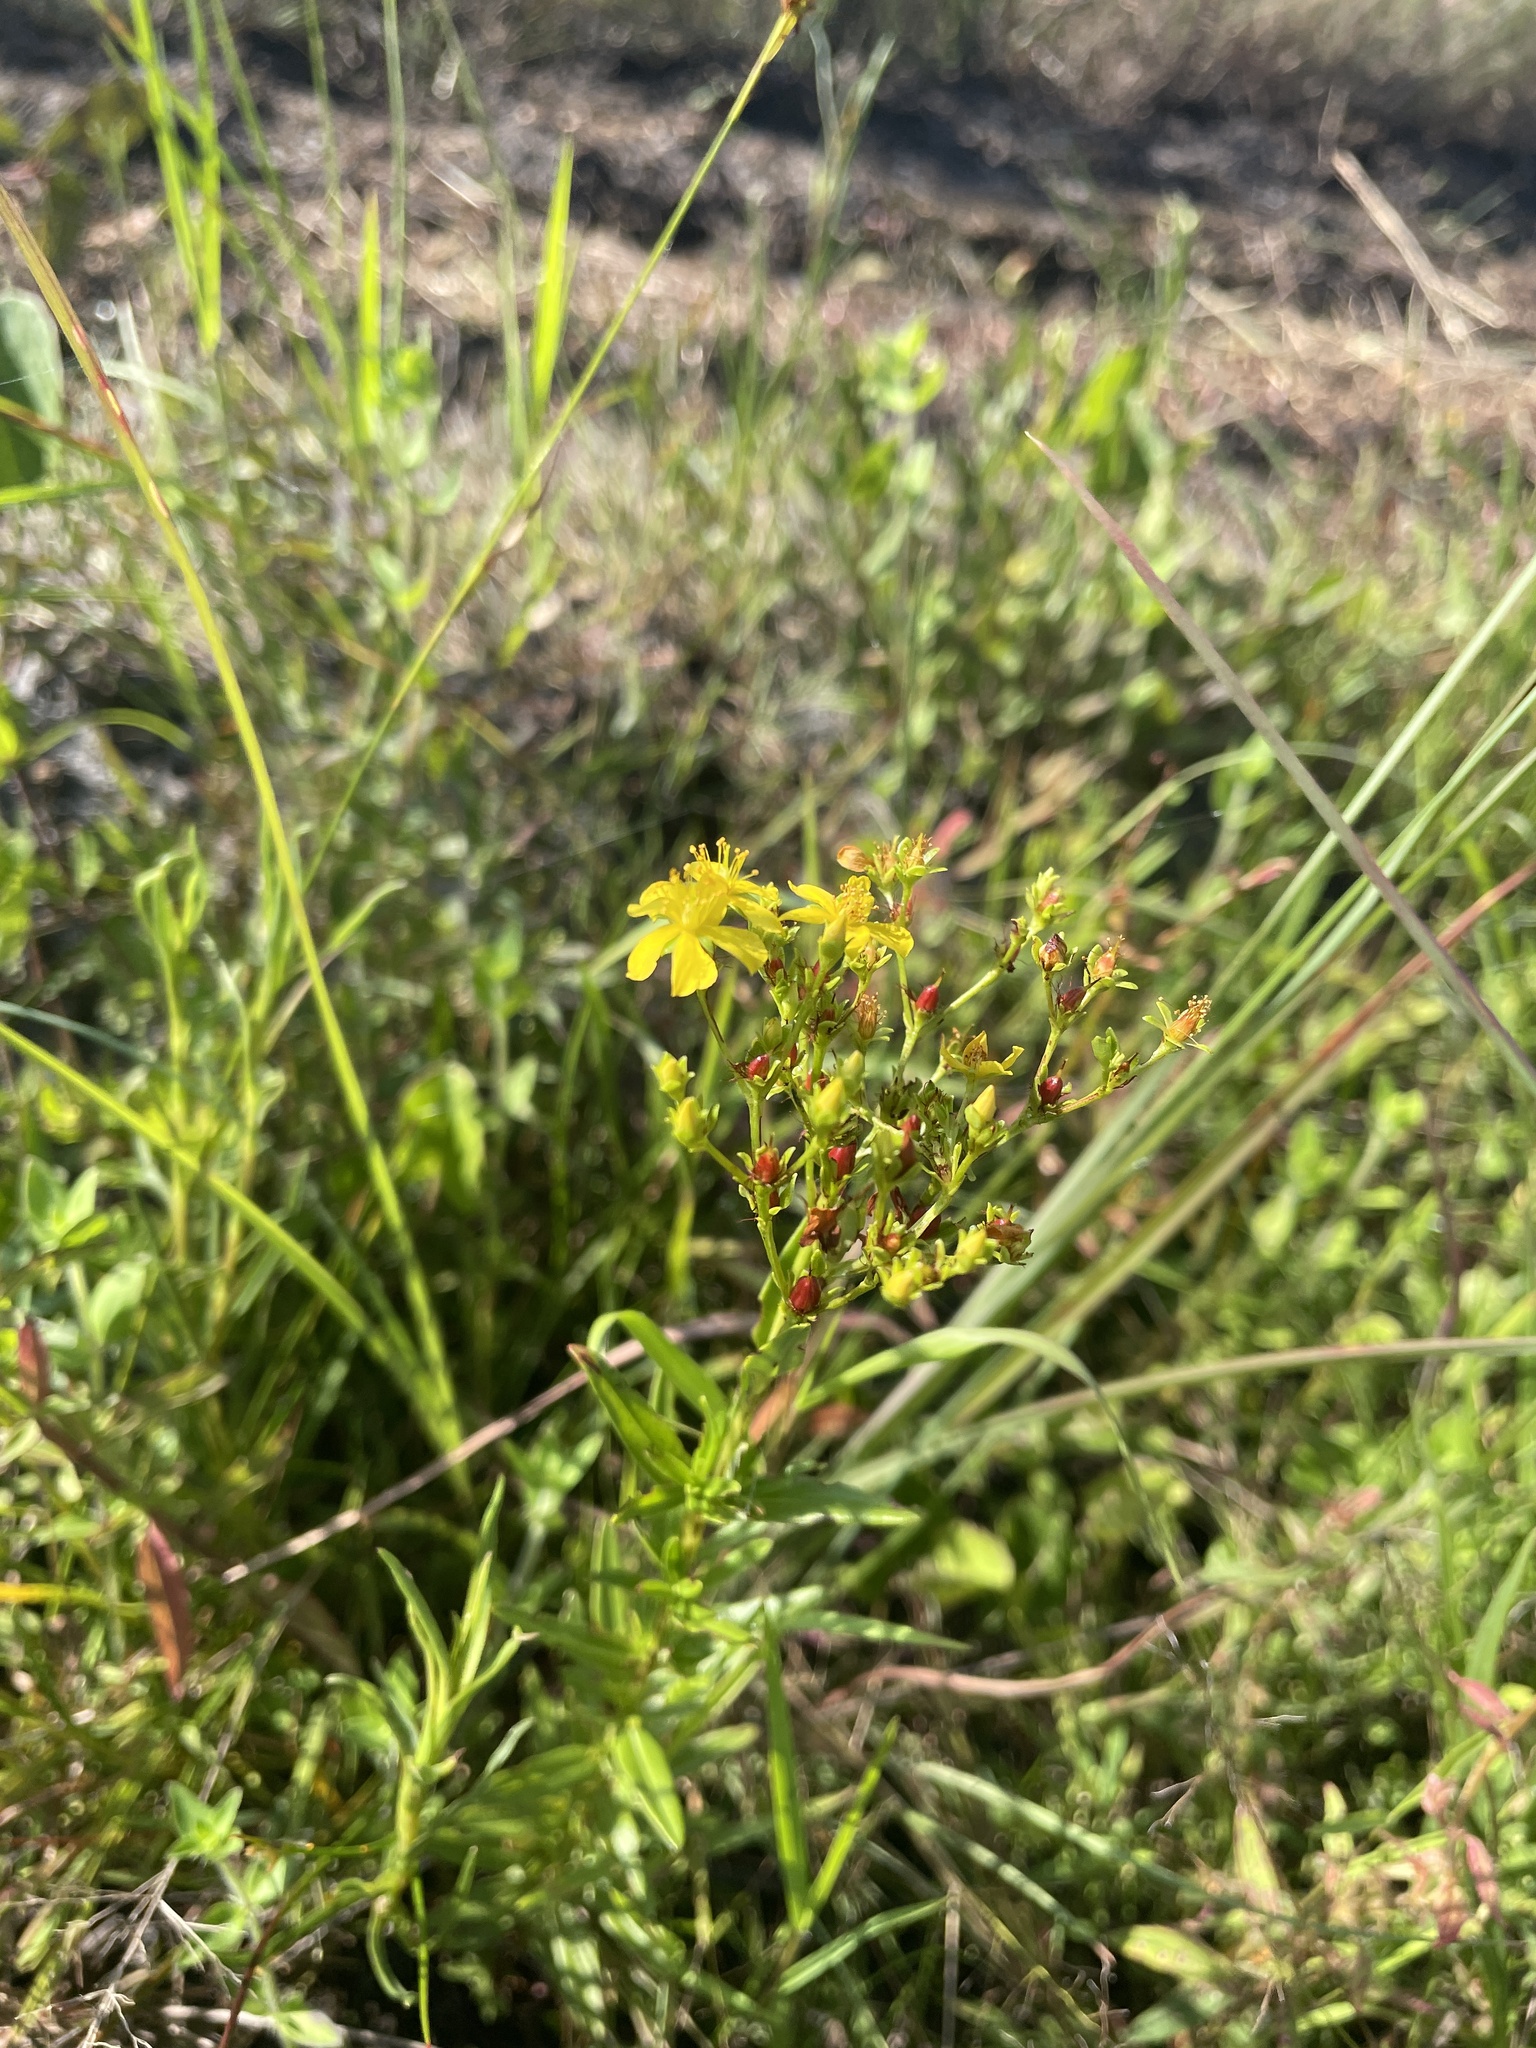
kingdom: Plantae
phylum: Tracheophyta
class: Magnoliopsida
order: Malpighiales
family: Hypericaceae
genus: Hypericum
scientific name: Hypericum cistifolium
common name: Round-pod st. john's-wort
